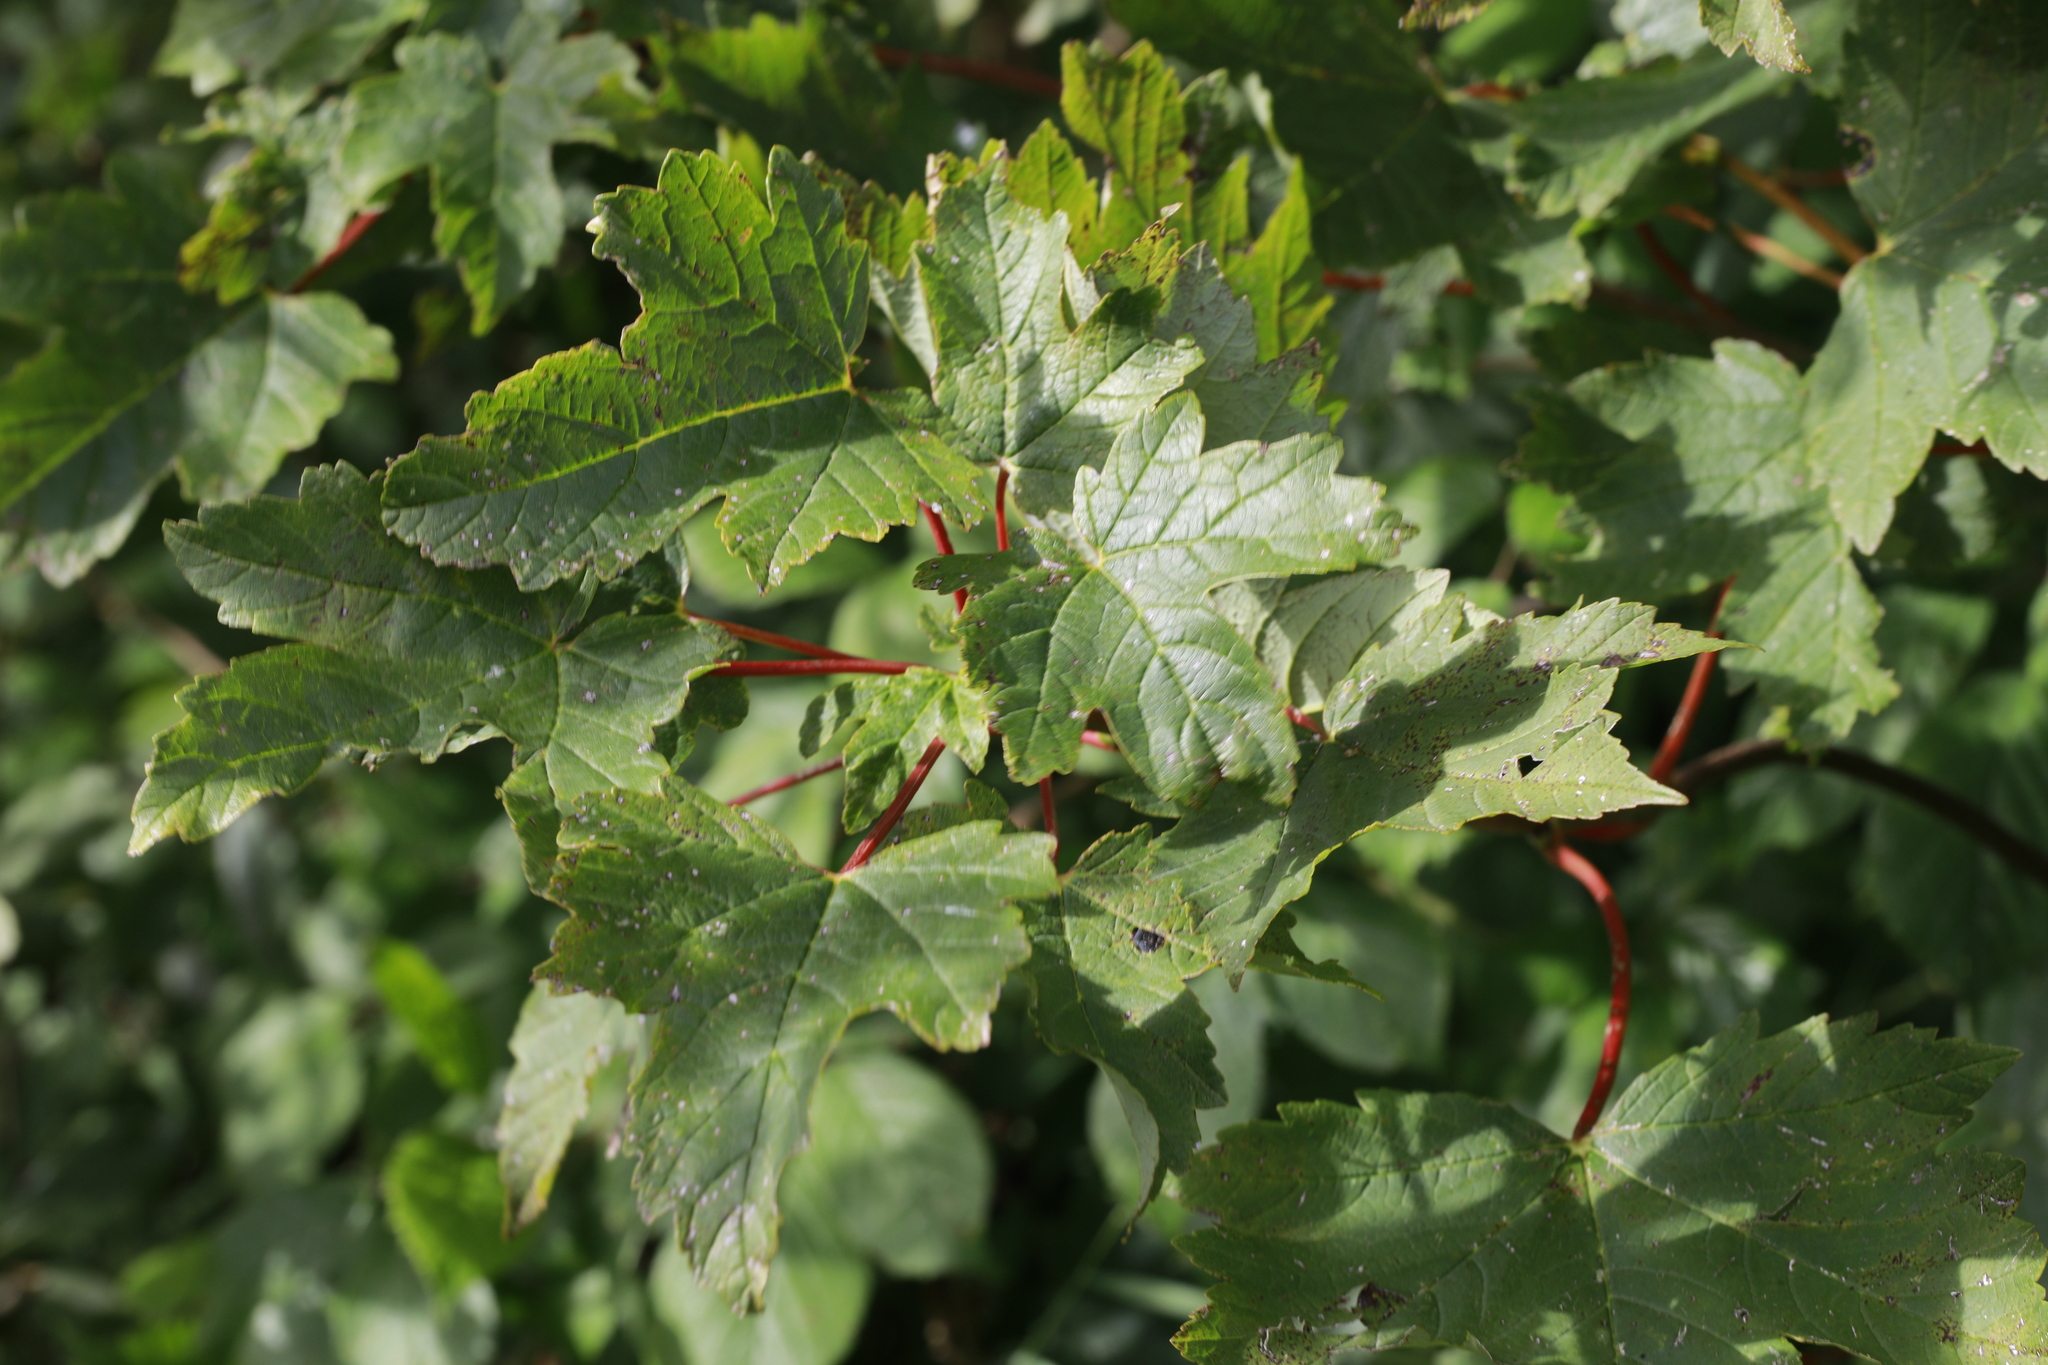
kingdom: Plantae
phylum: Tracheophyta
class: Magnoliopsida
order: Sapindales
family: Sapindaceae
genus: Acer
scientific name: Acer pseudoplatanus
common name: Sycamore
